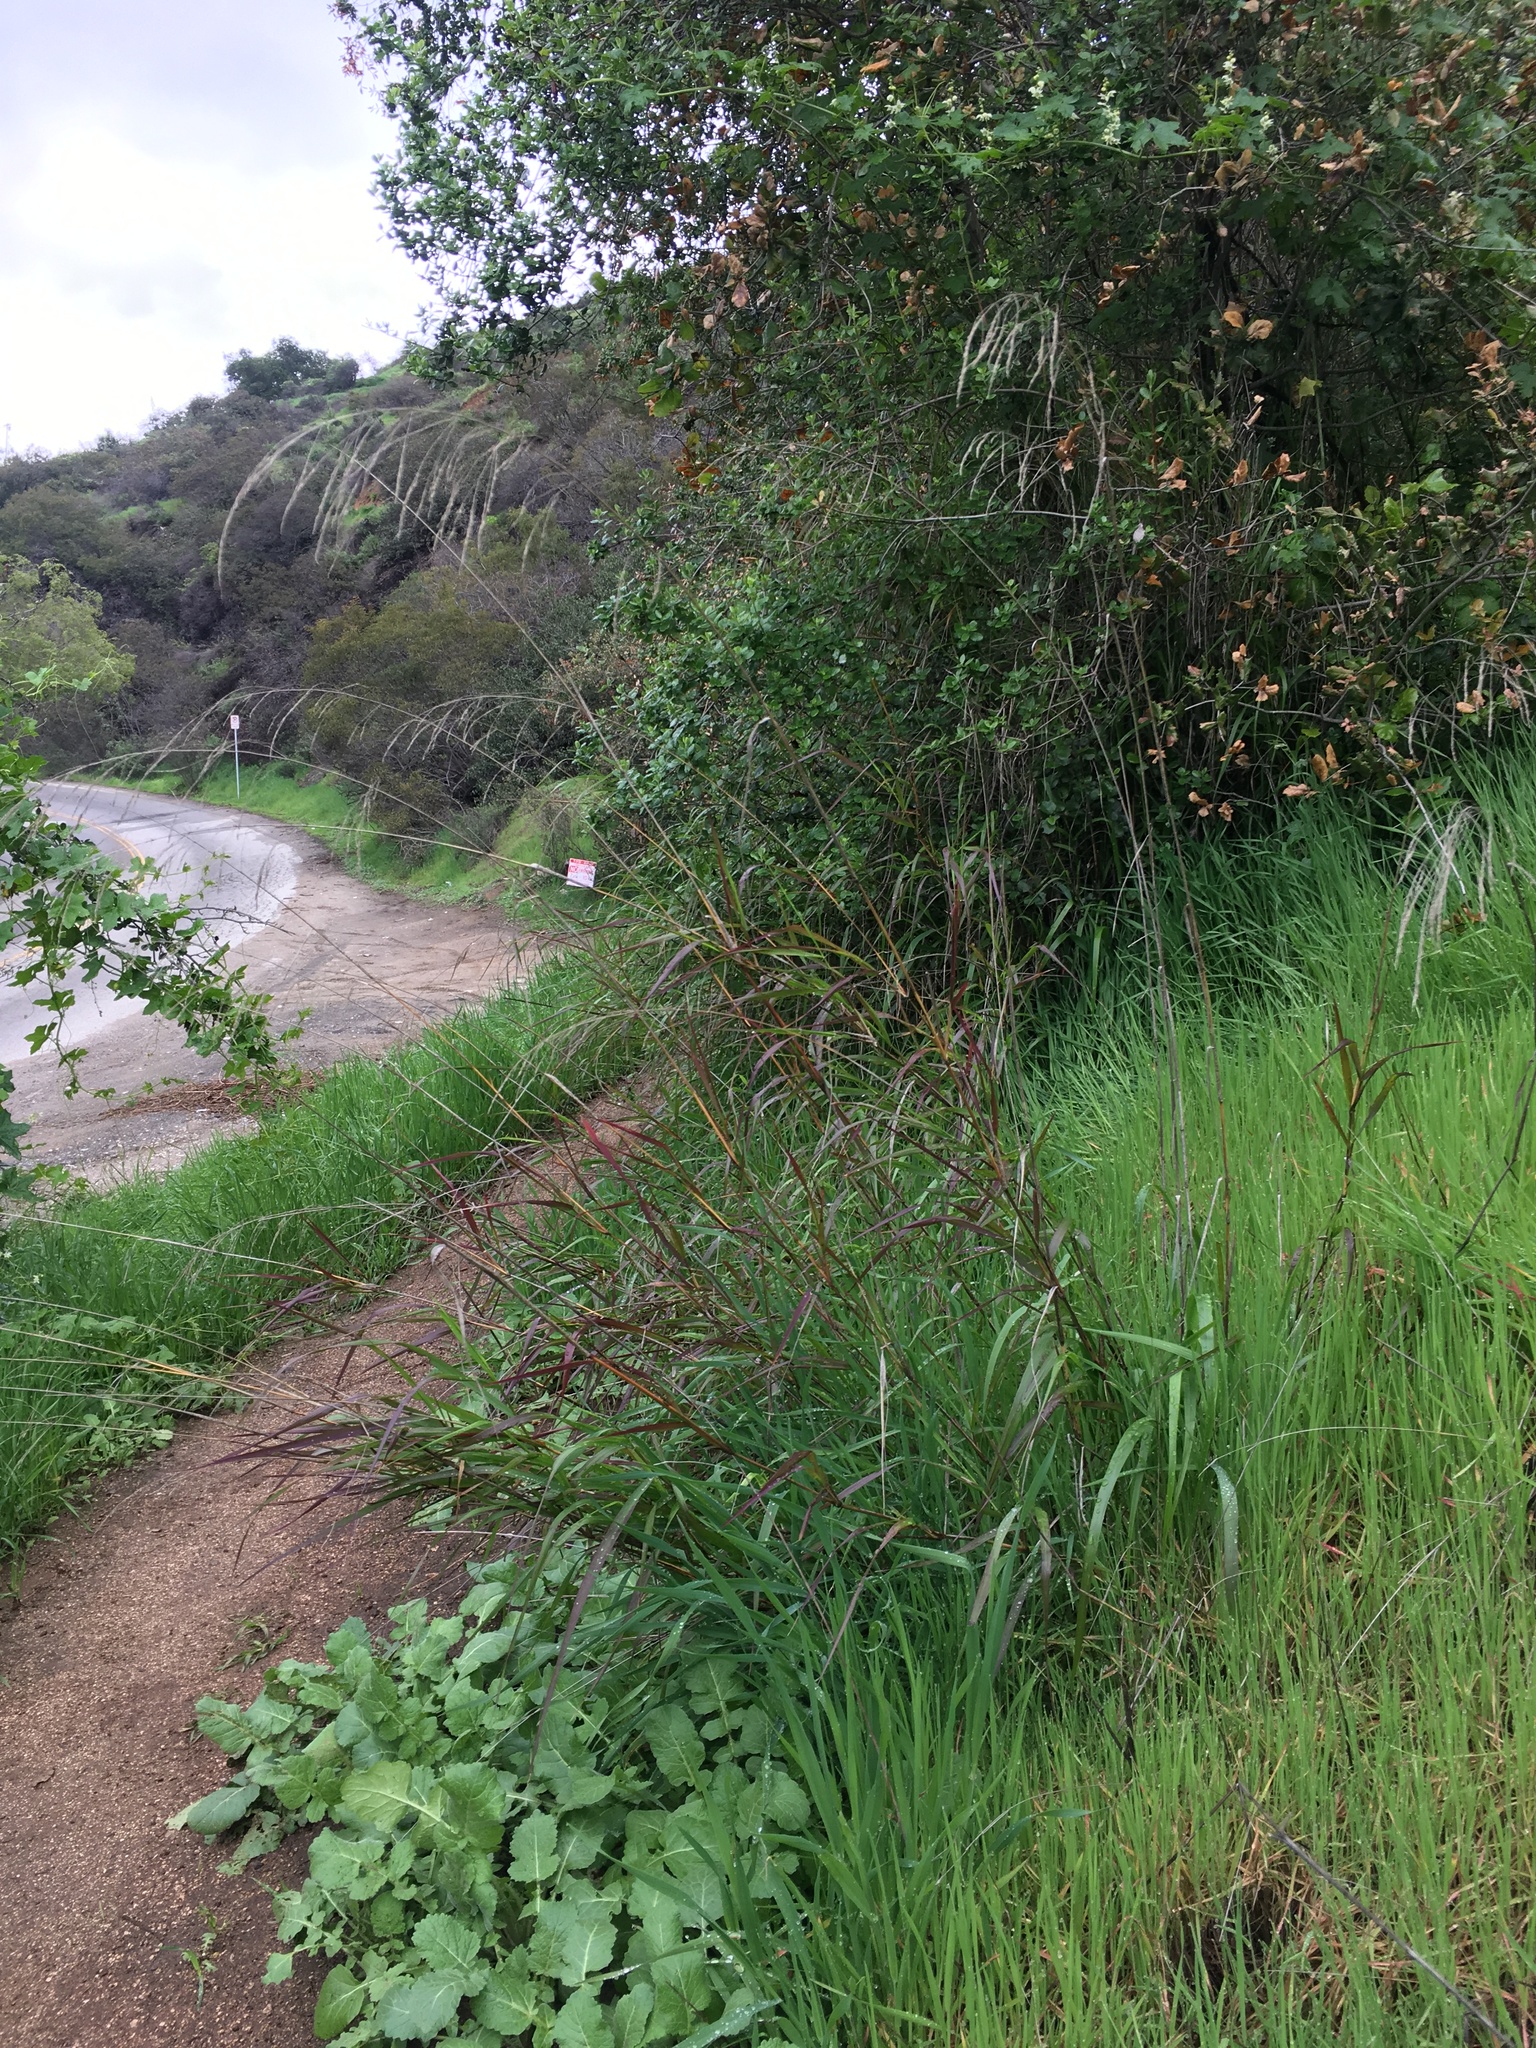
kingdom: Plantae
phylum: Tracheophyta
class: Liliopsida
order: Poales
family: Poaceae
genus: Oloptum
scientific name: Oloptum miliaceum
